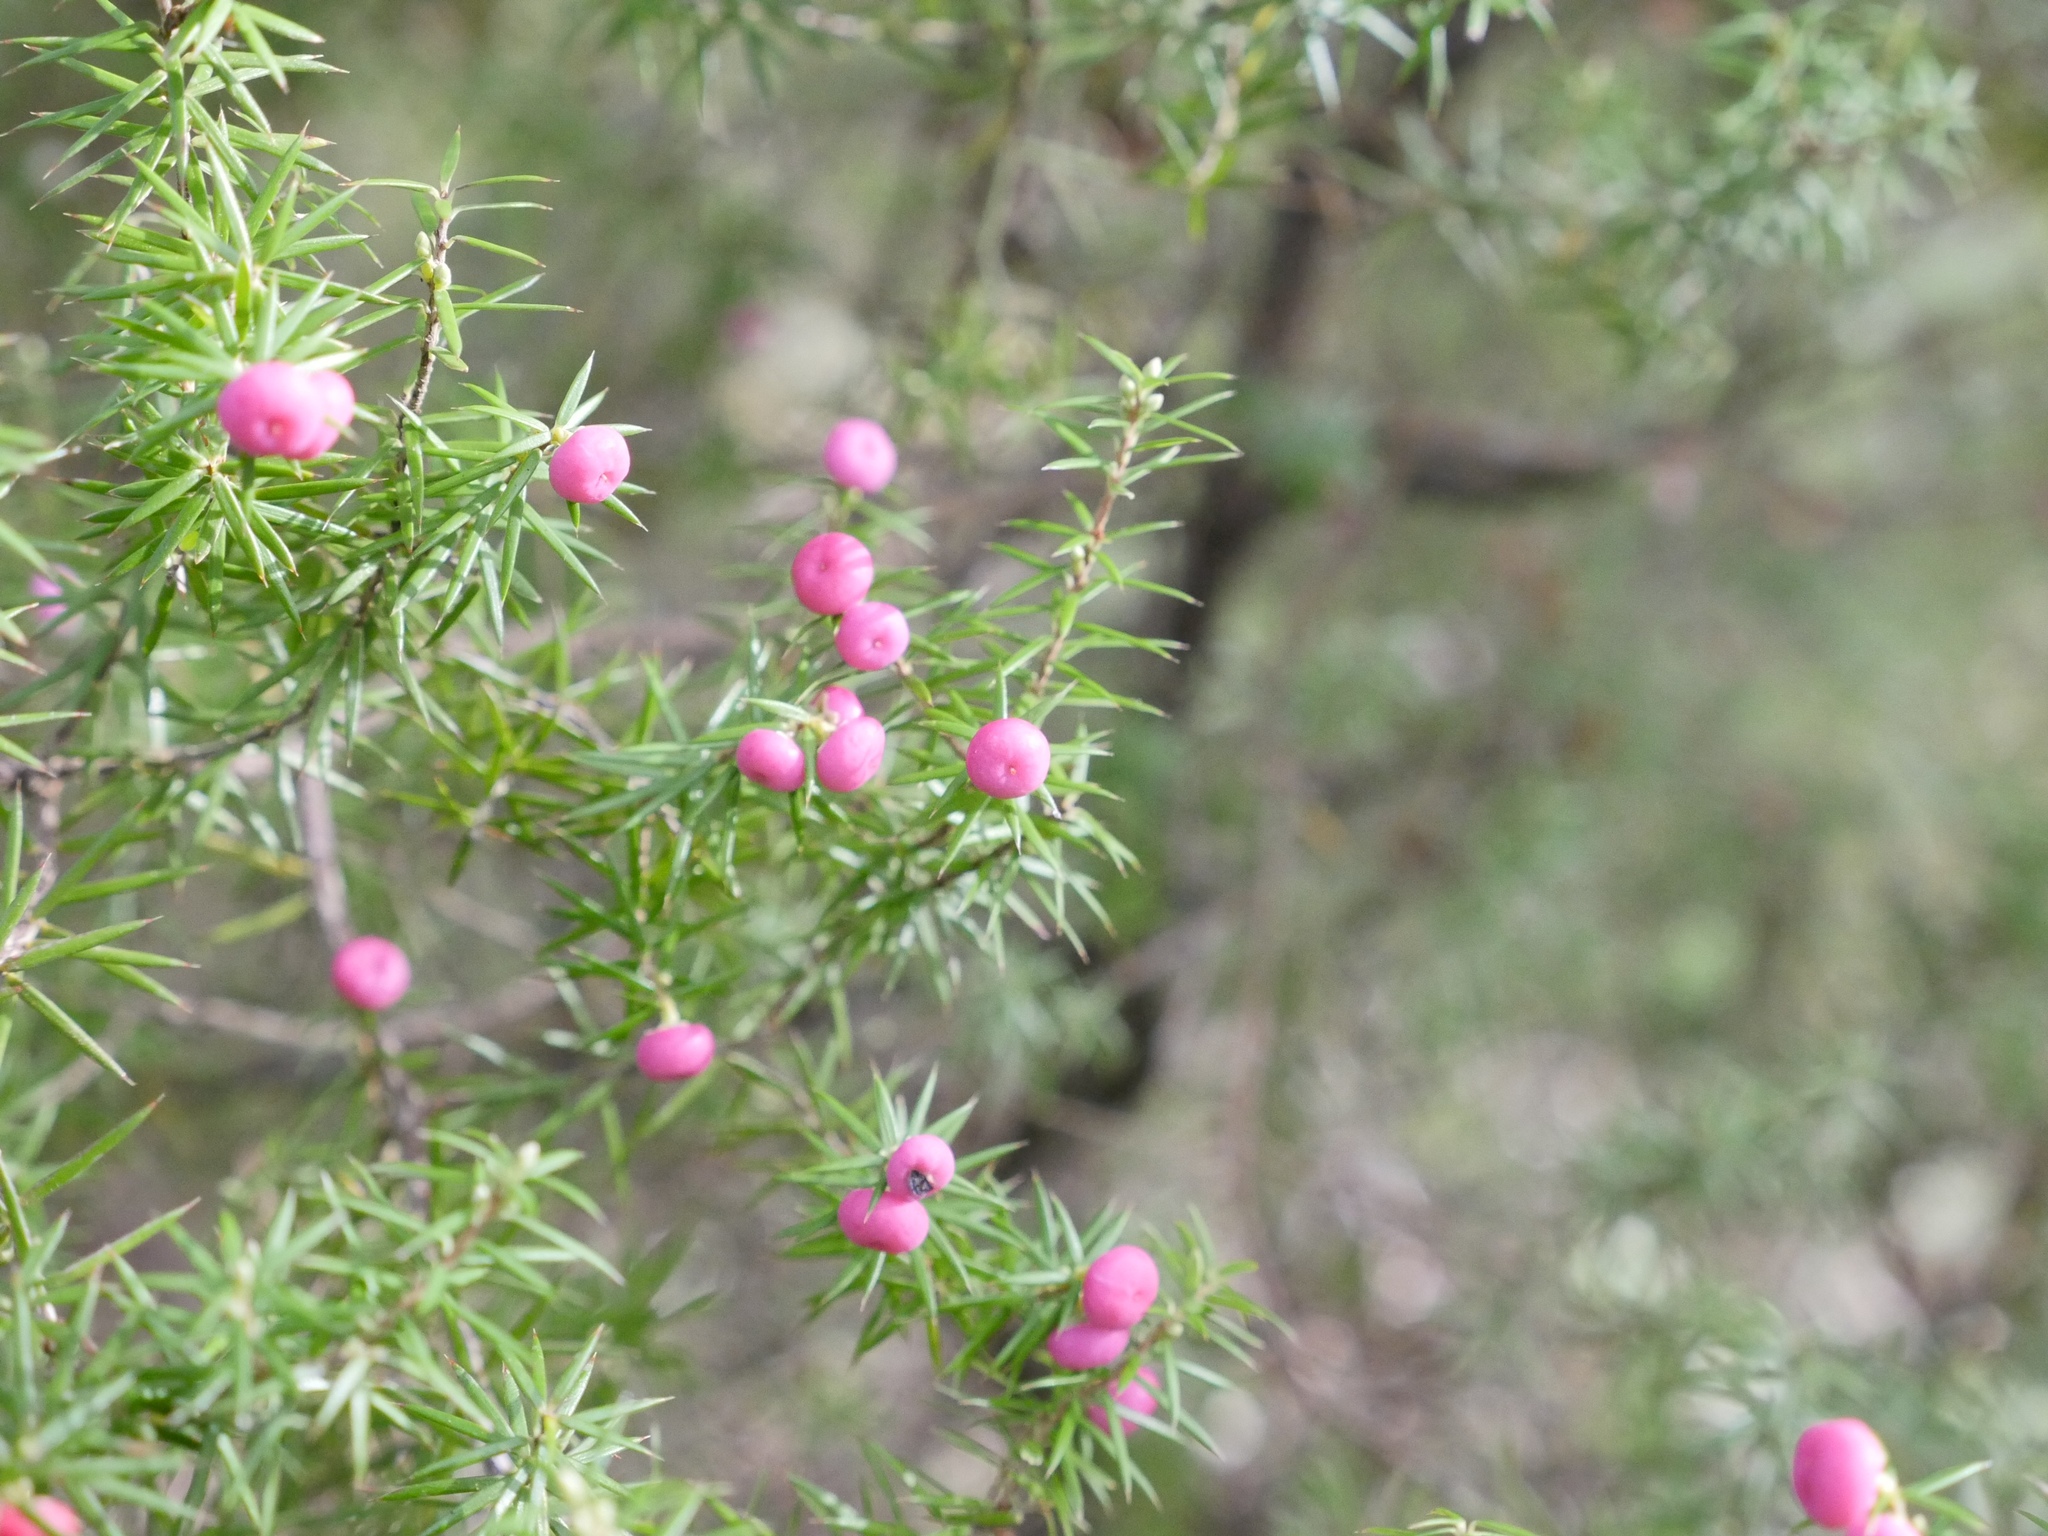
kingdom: Plantae
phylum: Tracheophyta
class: Magnoliopsida
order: Ericales
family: Ericaceae
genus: Leptecophylla
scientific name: Leptecophylla juniperina
